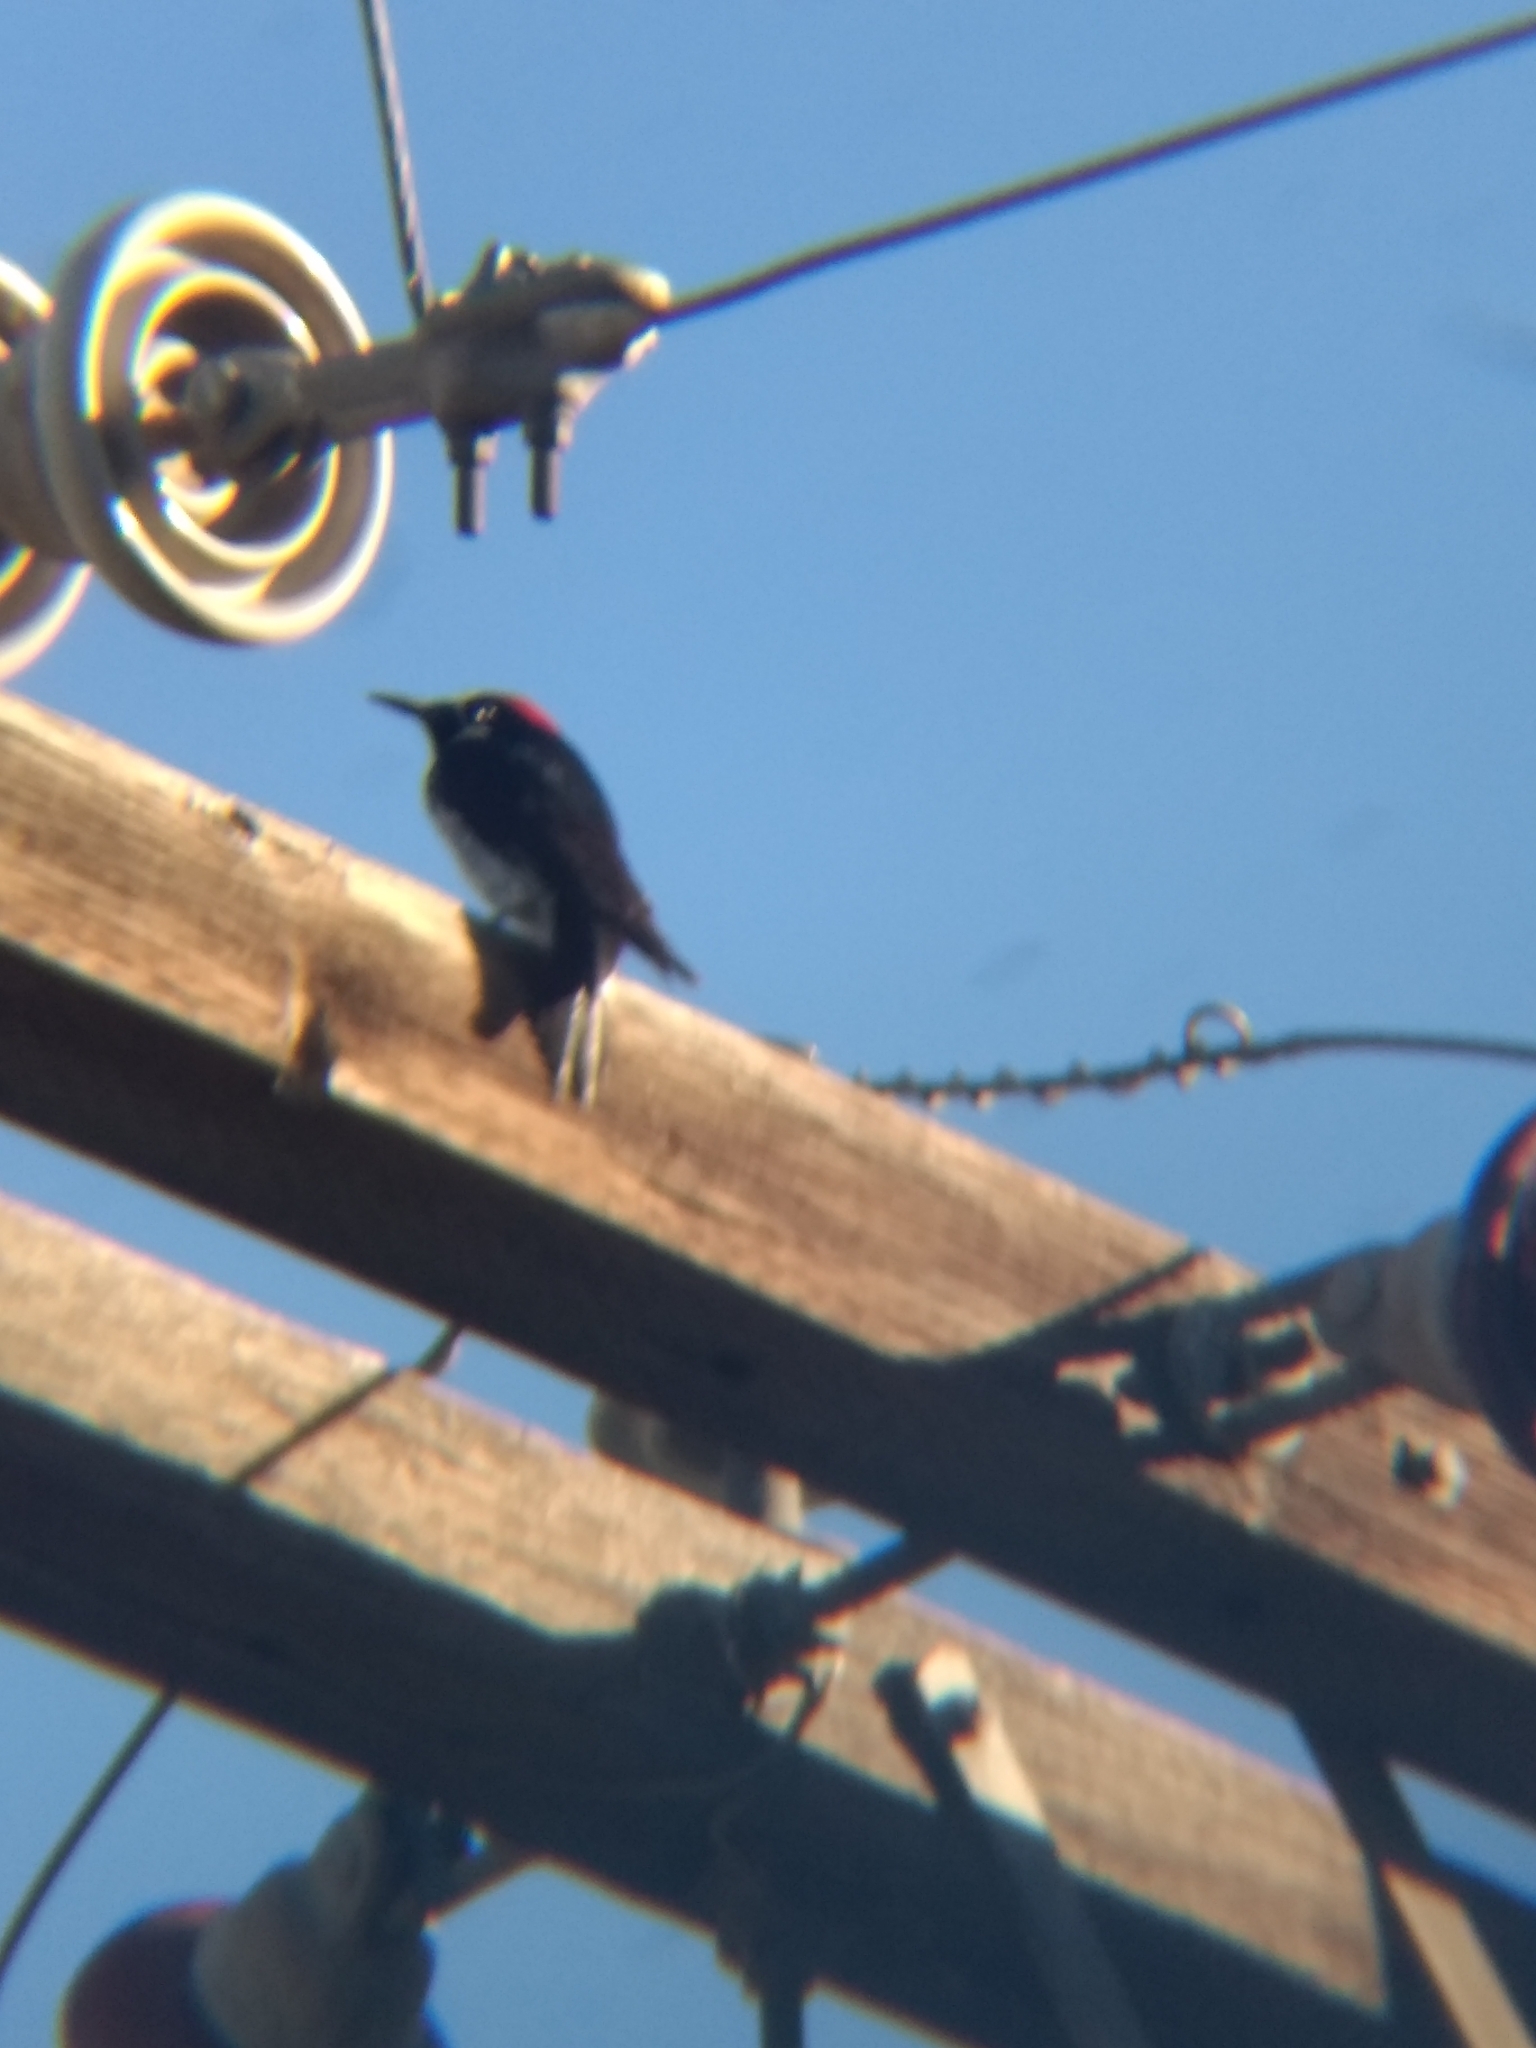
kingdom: Animalia
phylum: Chordata
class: Aves
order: Piciformes
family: Picidae
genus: Melanerpes
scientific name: Melanerpes formicivorus
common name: Acorn woodpecker
